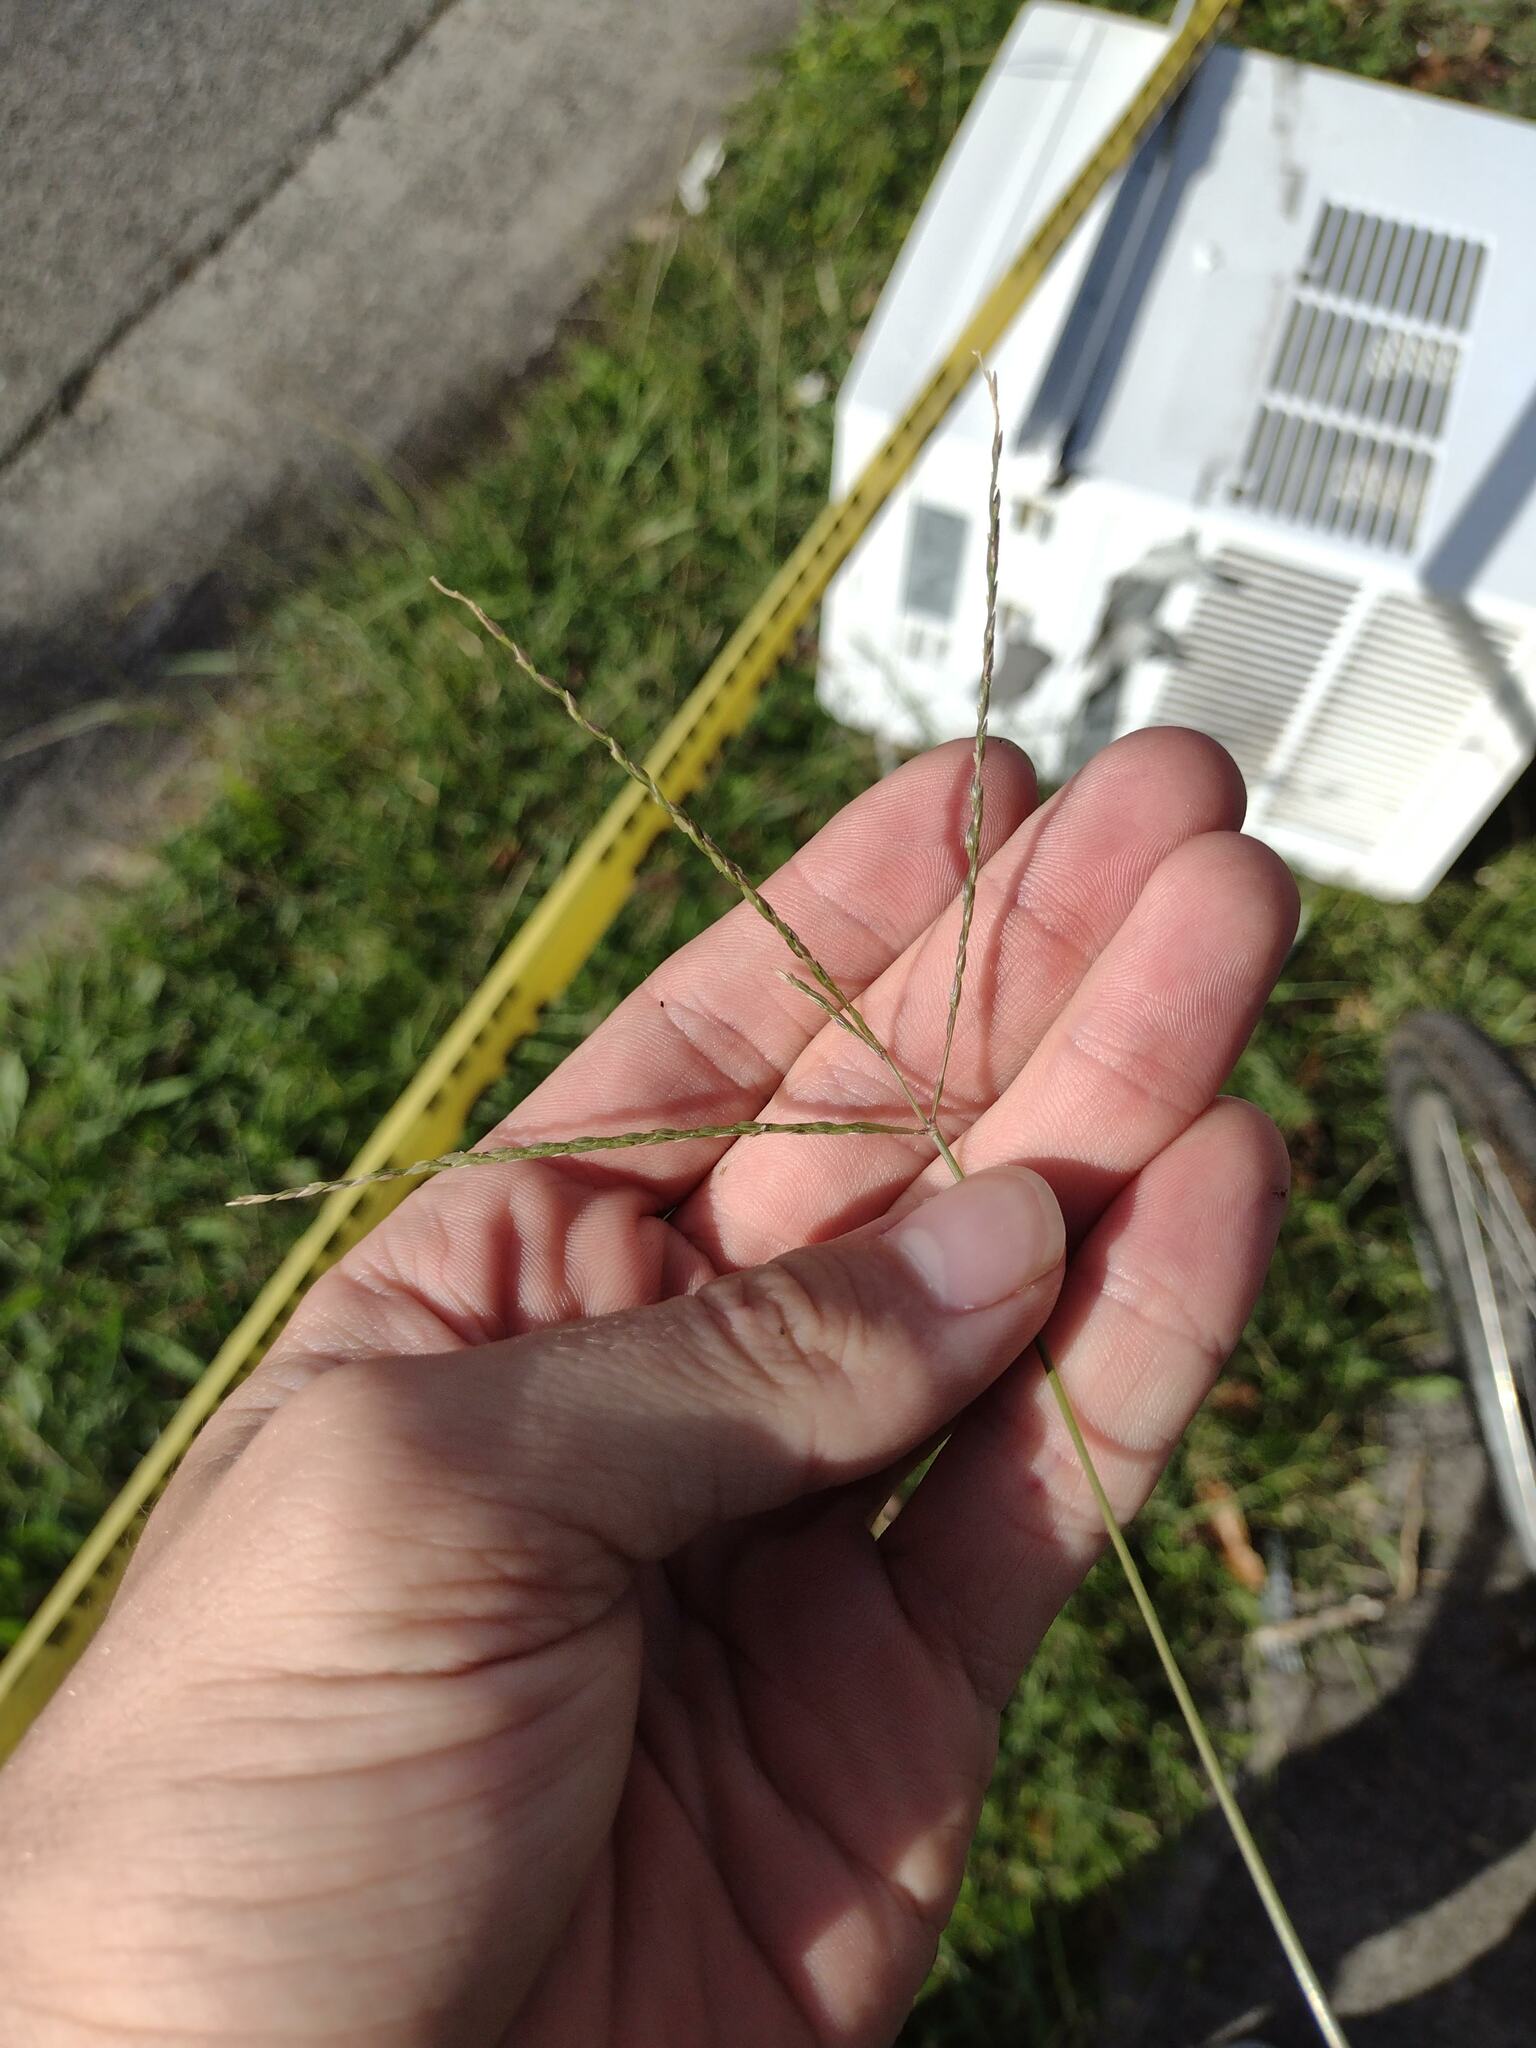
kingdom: Plantae
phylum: Tracheophyta
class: Liliopsida
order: Poales
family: Poaceae
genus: Digitaria
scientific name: Digitaria ciliaris
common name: Tropical finger-grass
